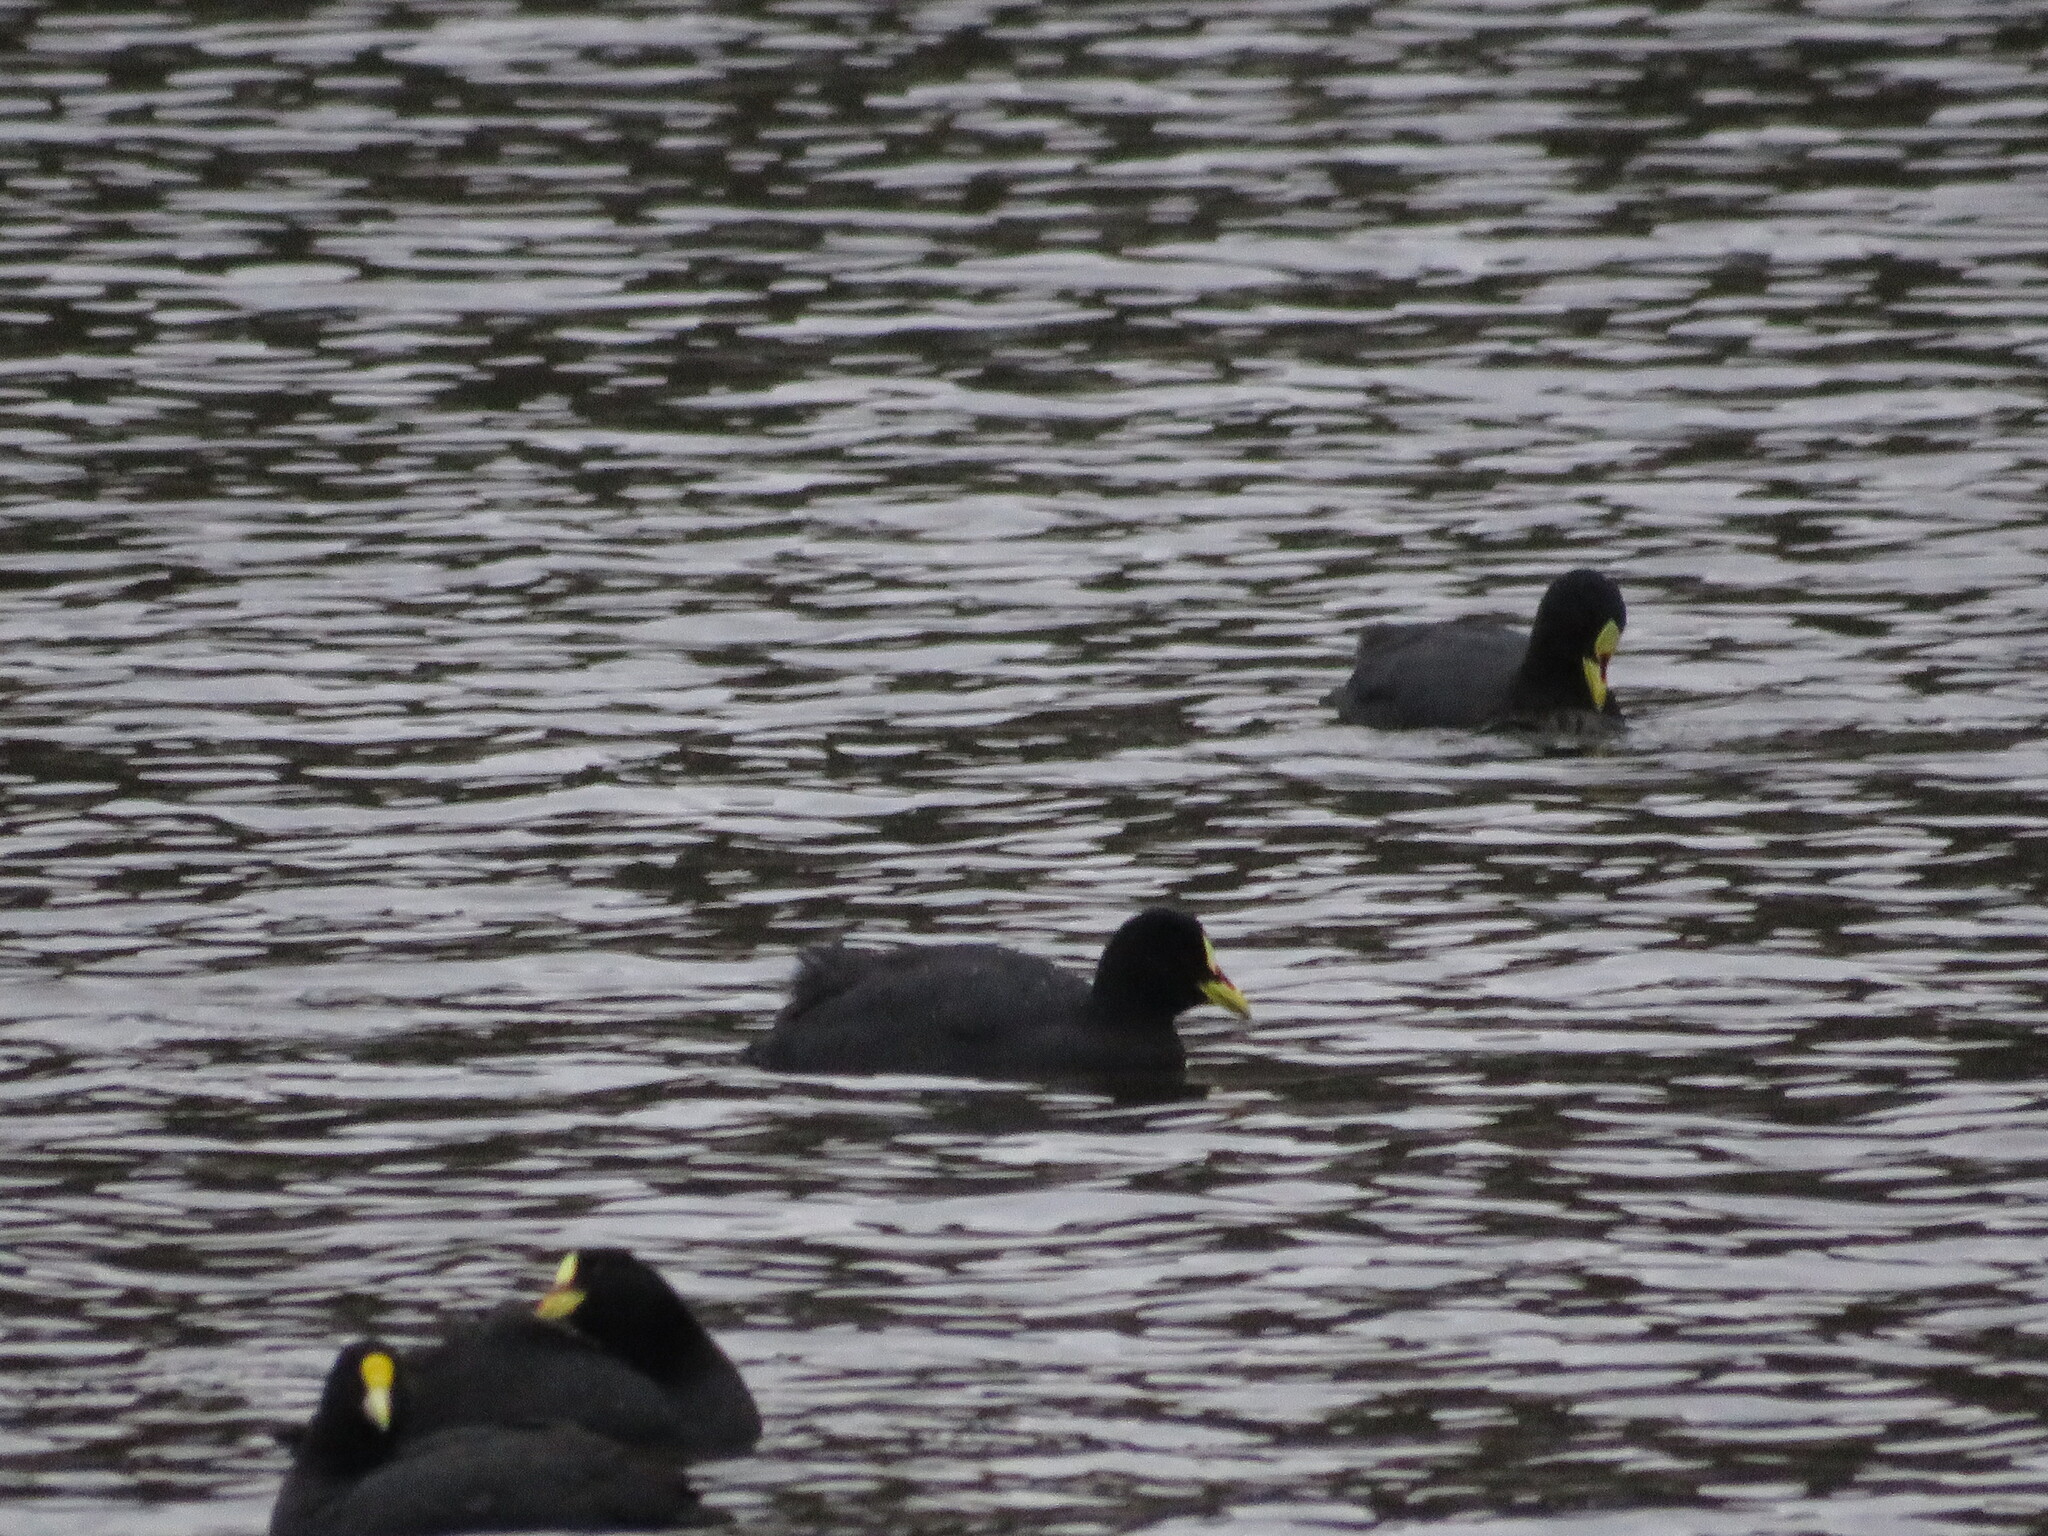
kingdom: Animalia
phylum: Chordata
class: Aves
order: Gruiformes
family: Rallidae
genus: Fulica
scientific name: Fulica armillata
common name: Red-gartered coot
